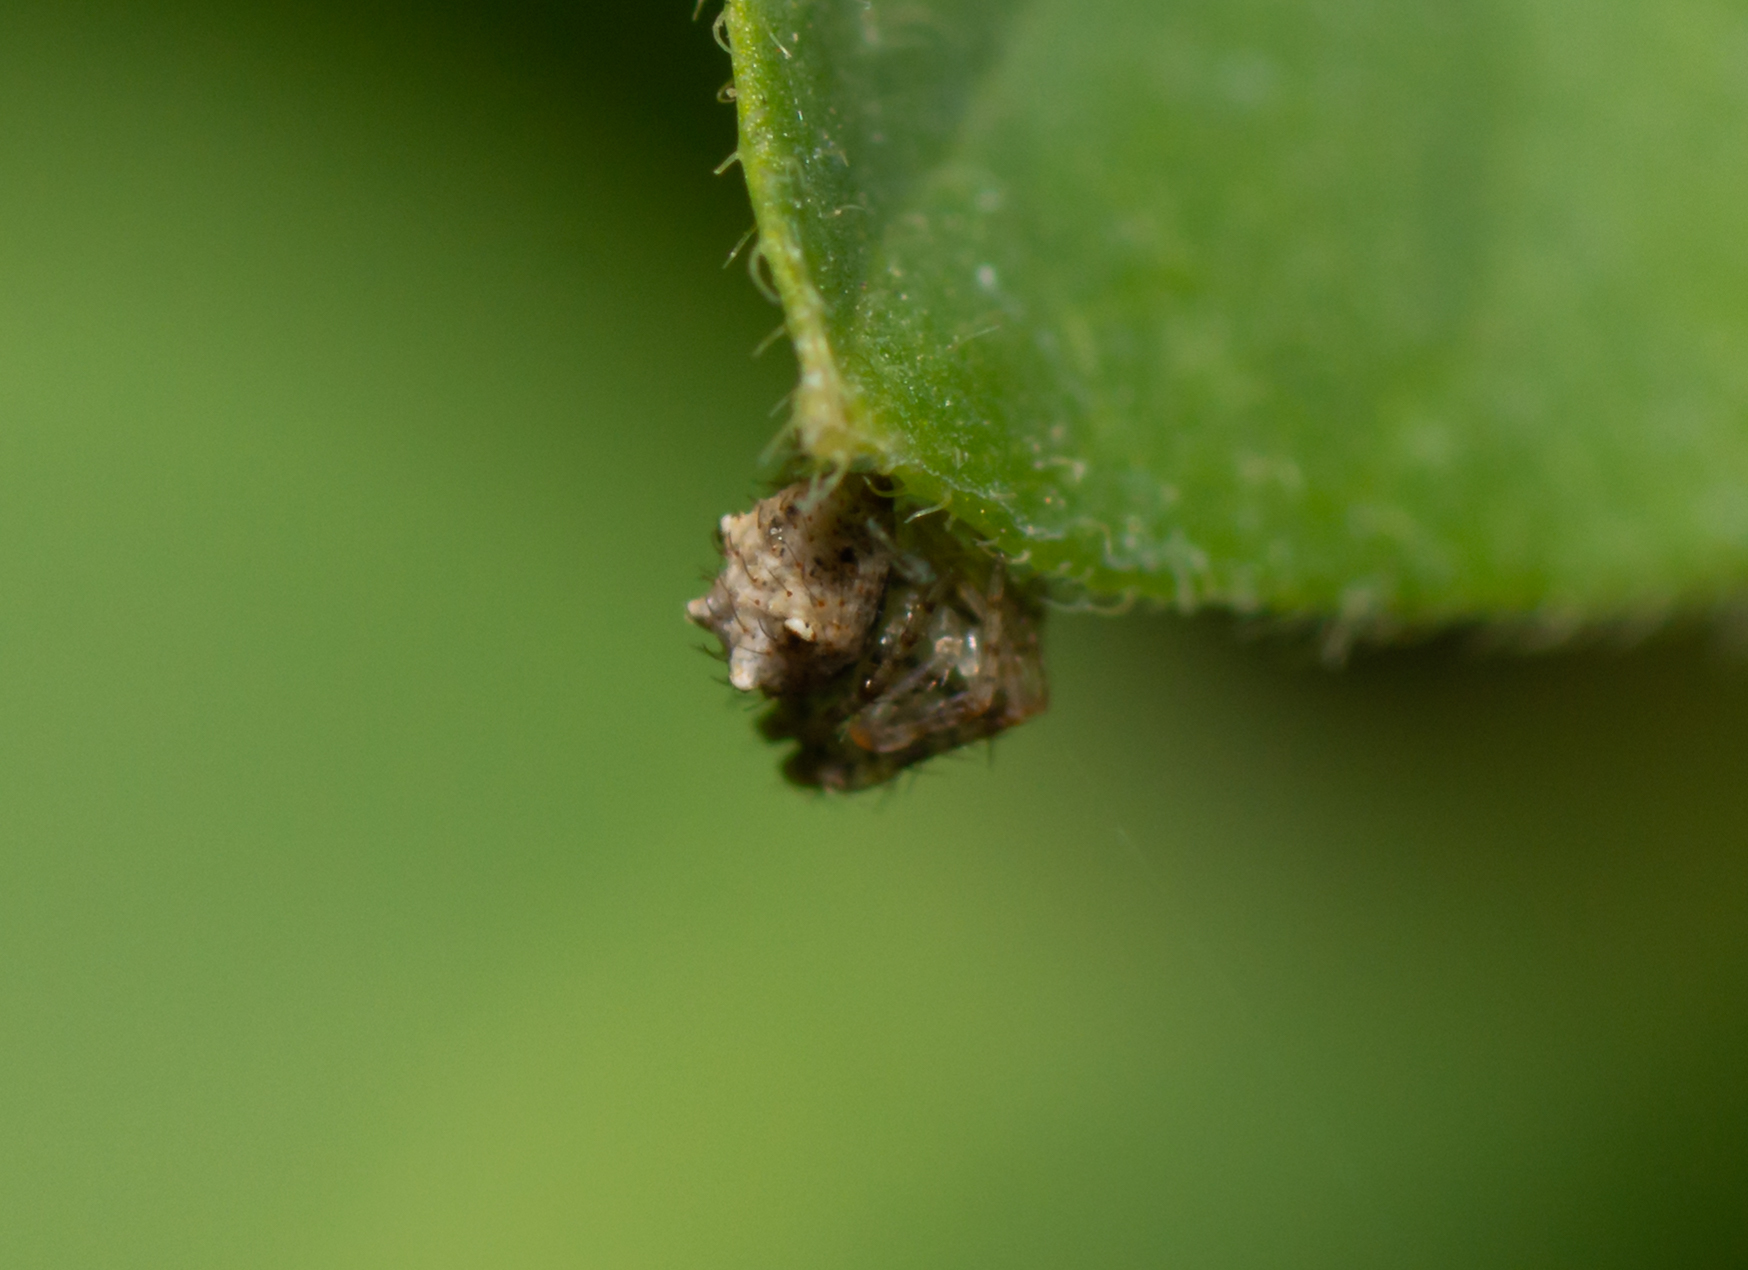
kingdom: Animalia
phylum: Arthropoda
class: Arachnida
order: Araneae
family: Mimetidae
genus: Ero
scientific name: Ero aphana
